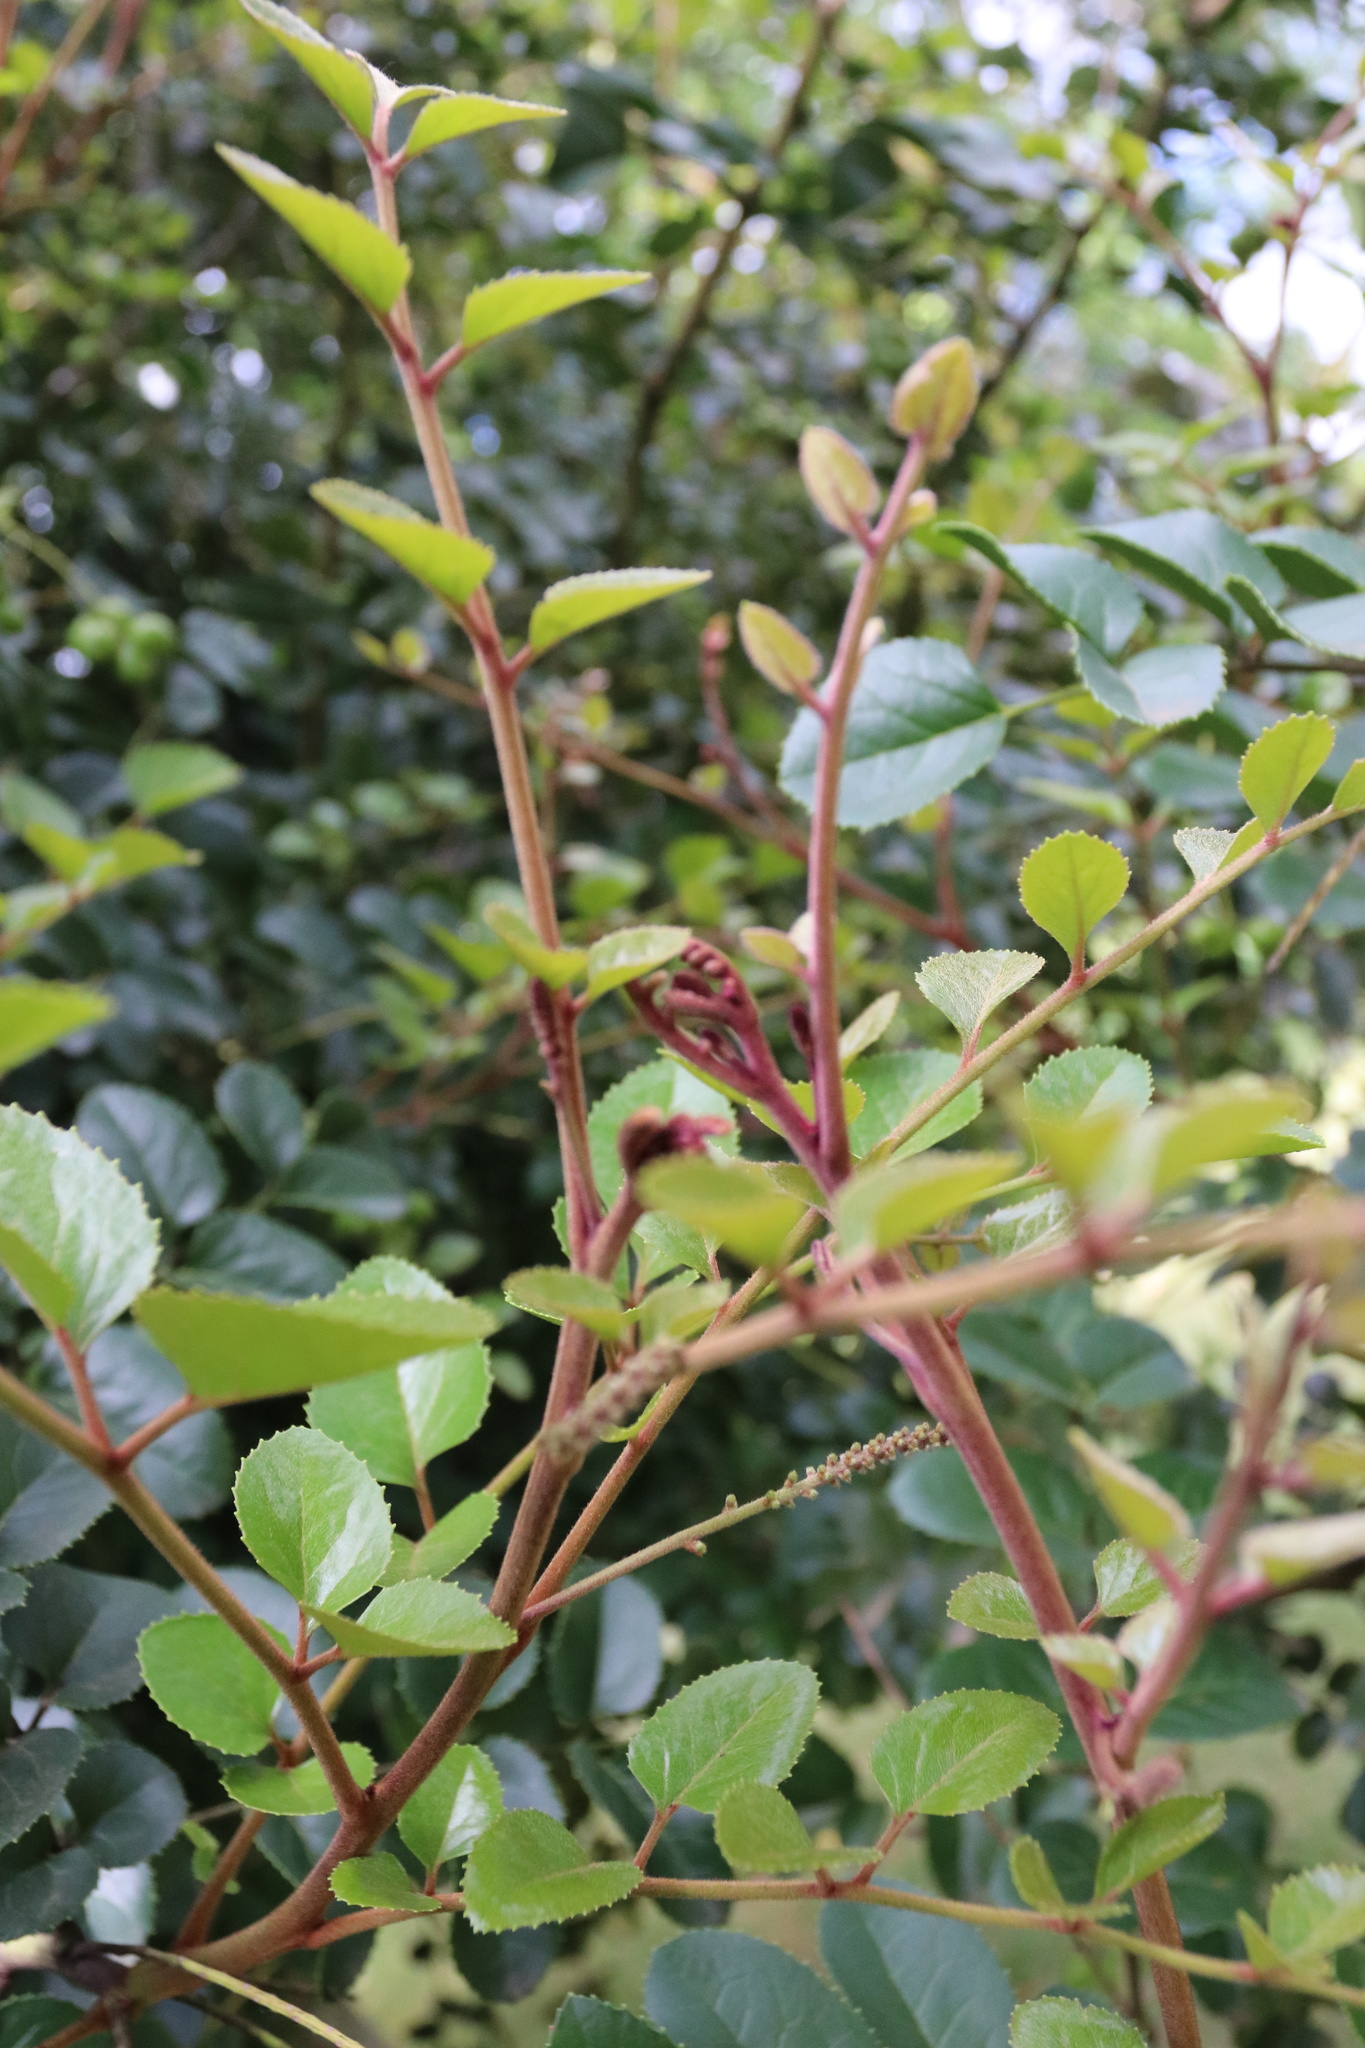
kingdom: Plantae
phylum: Tracheophyta
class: Magnoliopsida
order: Proteales
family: Proteaceae
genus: Gevuina
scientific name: Gevuina avellana
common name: Chilean hazel
